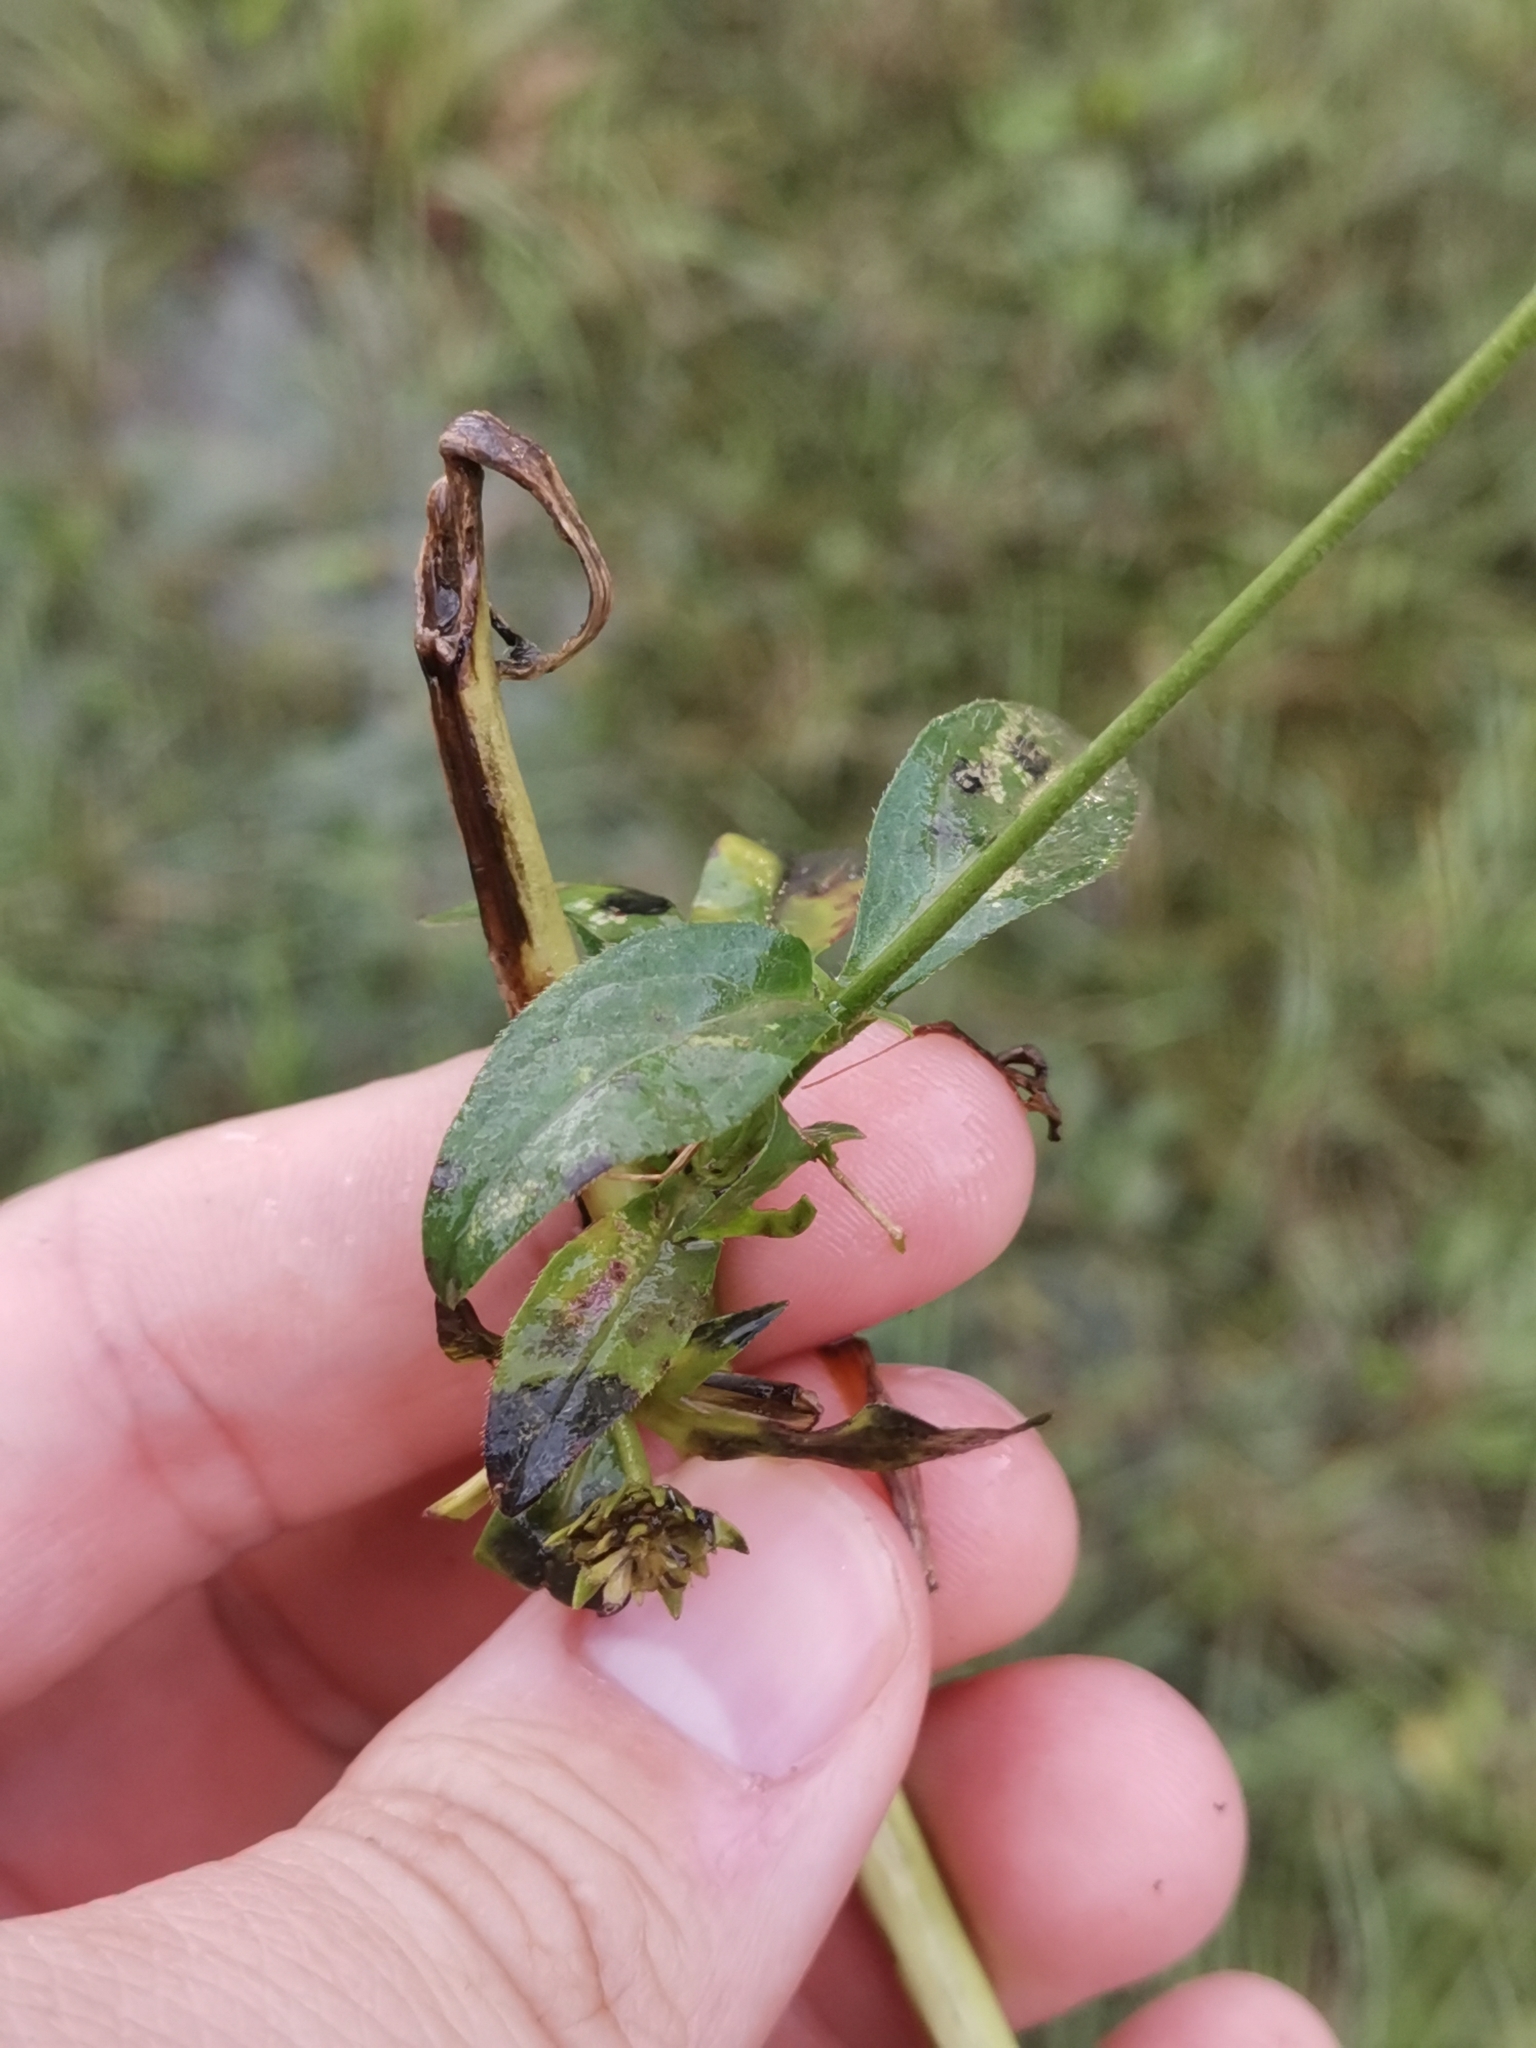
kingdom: Plantae
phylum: Tracheophyta
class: Magnoliopsida
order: Dipsacales
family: Caprifoliaceae
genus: Succisella
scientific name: Succisella inflexa
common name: Southern succisella
